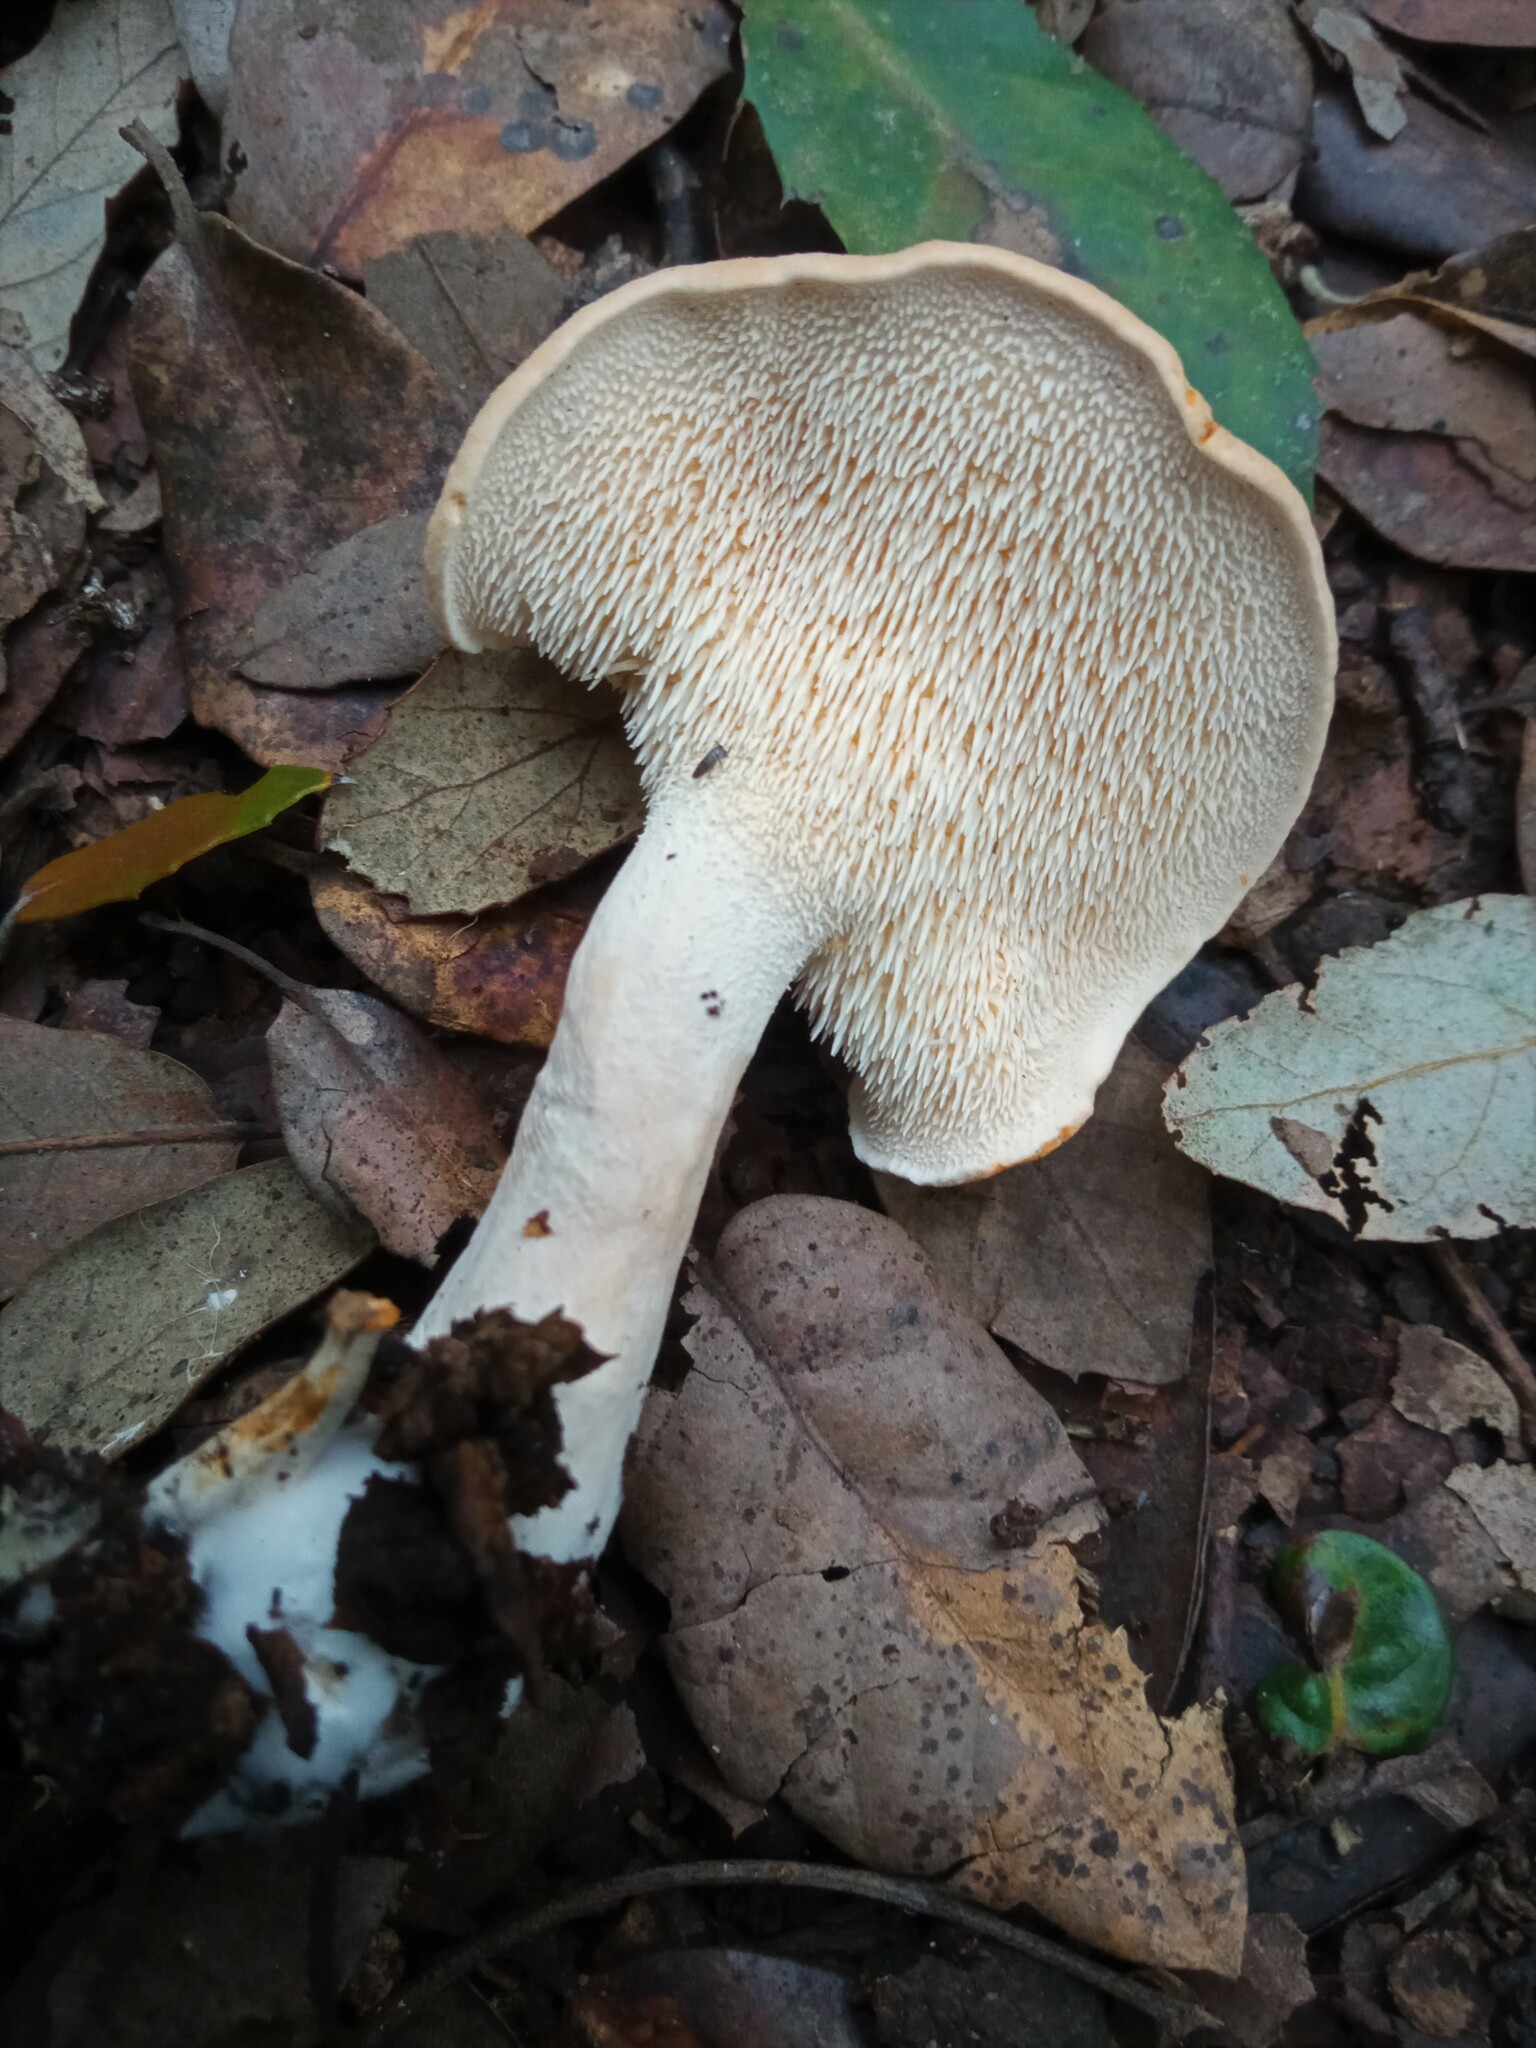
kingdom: Fungi
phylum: Basidiomycota
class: Agaricomycetes
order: Cantharellales
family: Hydnaceae
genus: Hydnum
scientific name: Hydnum repandum
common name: Wood hedgehog
